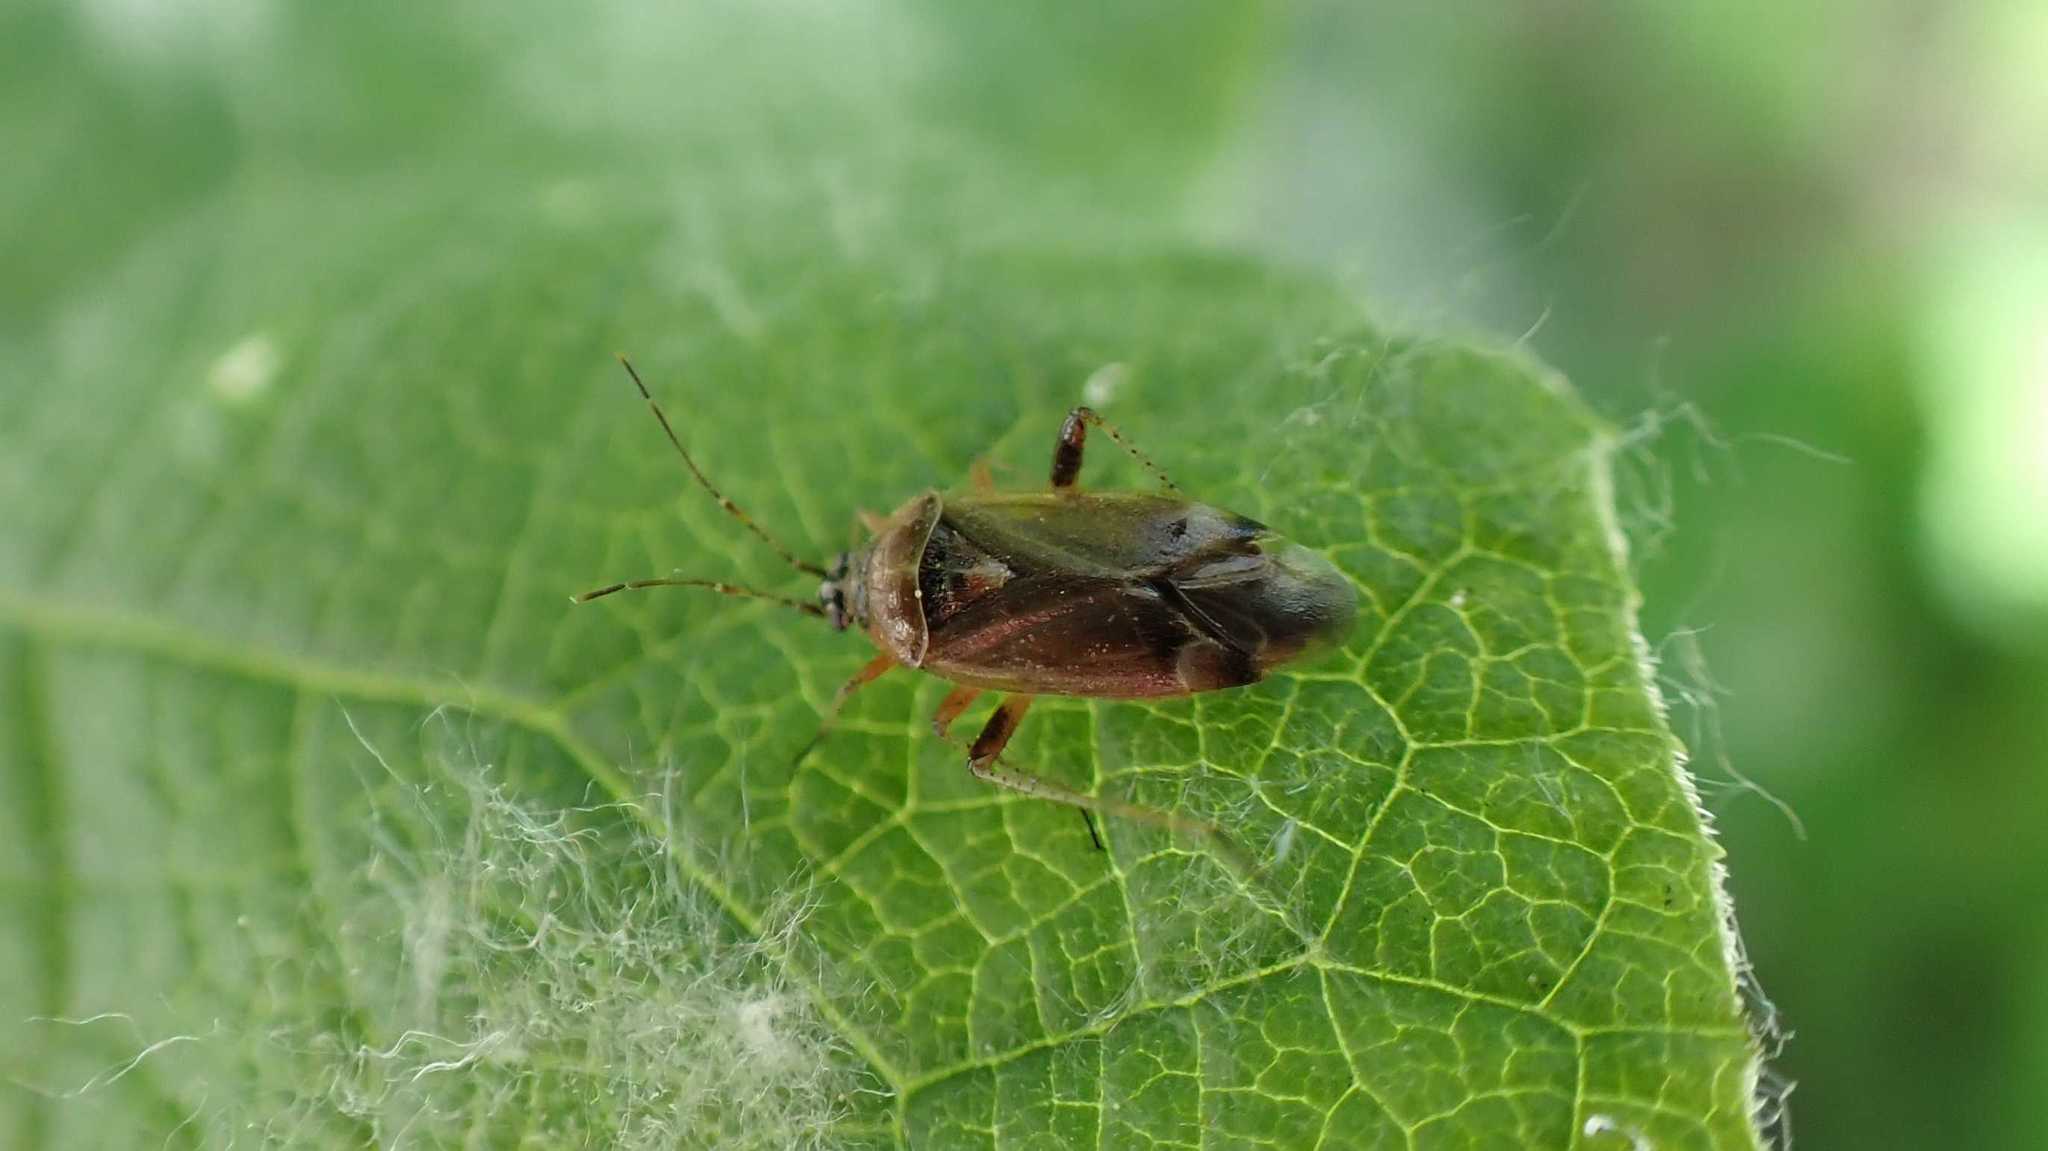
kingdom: Animalia
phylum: Arthropoda
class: Insecta
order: Hemiptera
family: Miridae
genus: Harpocera
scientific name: Harpocera thoracica
